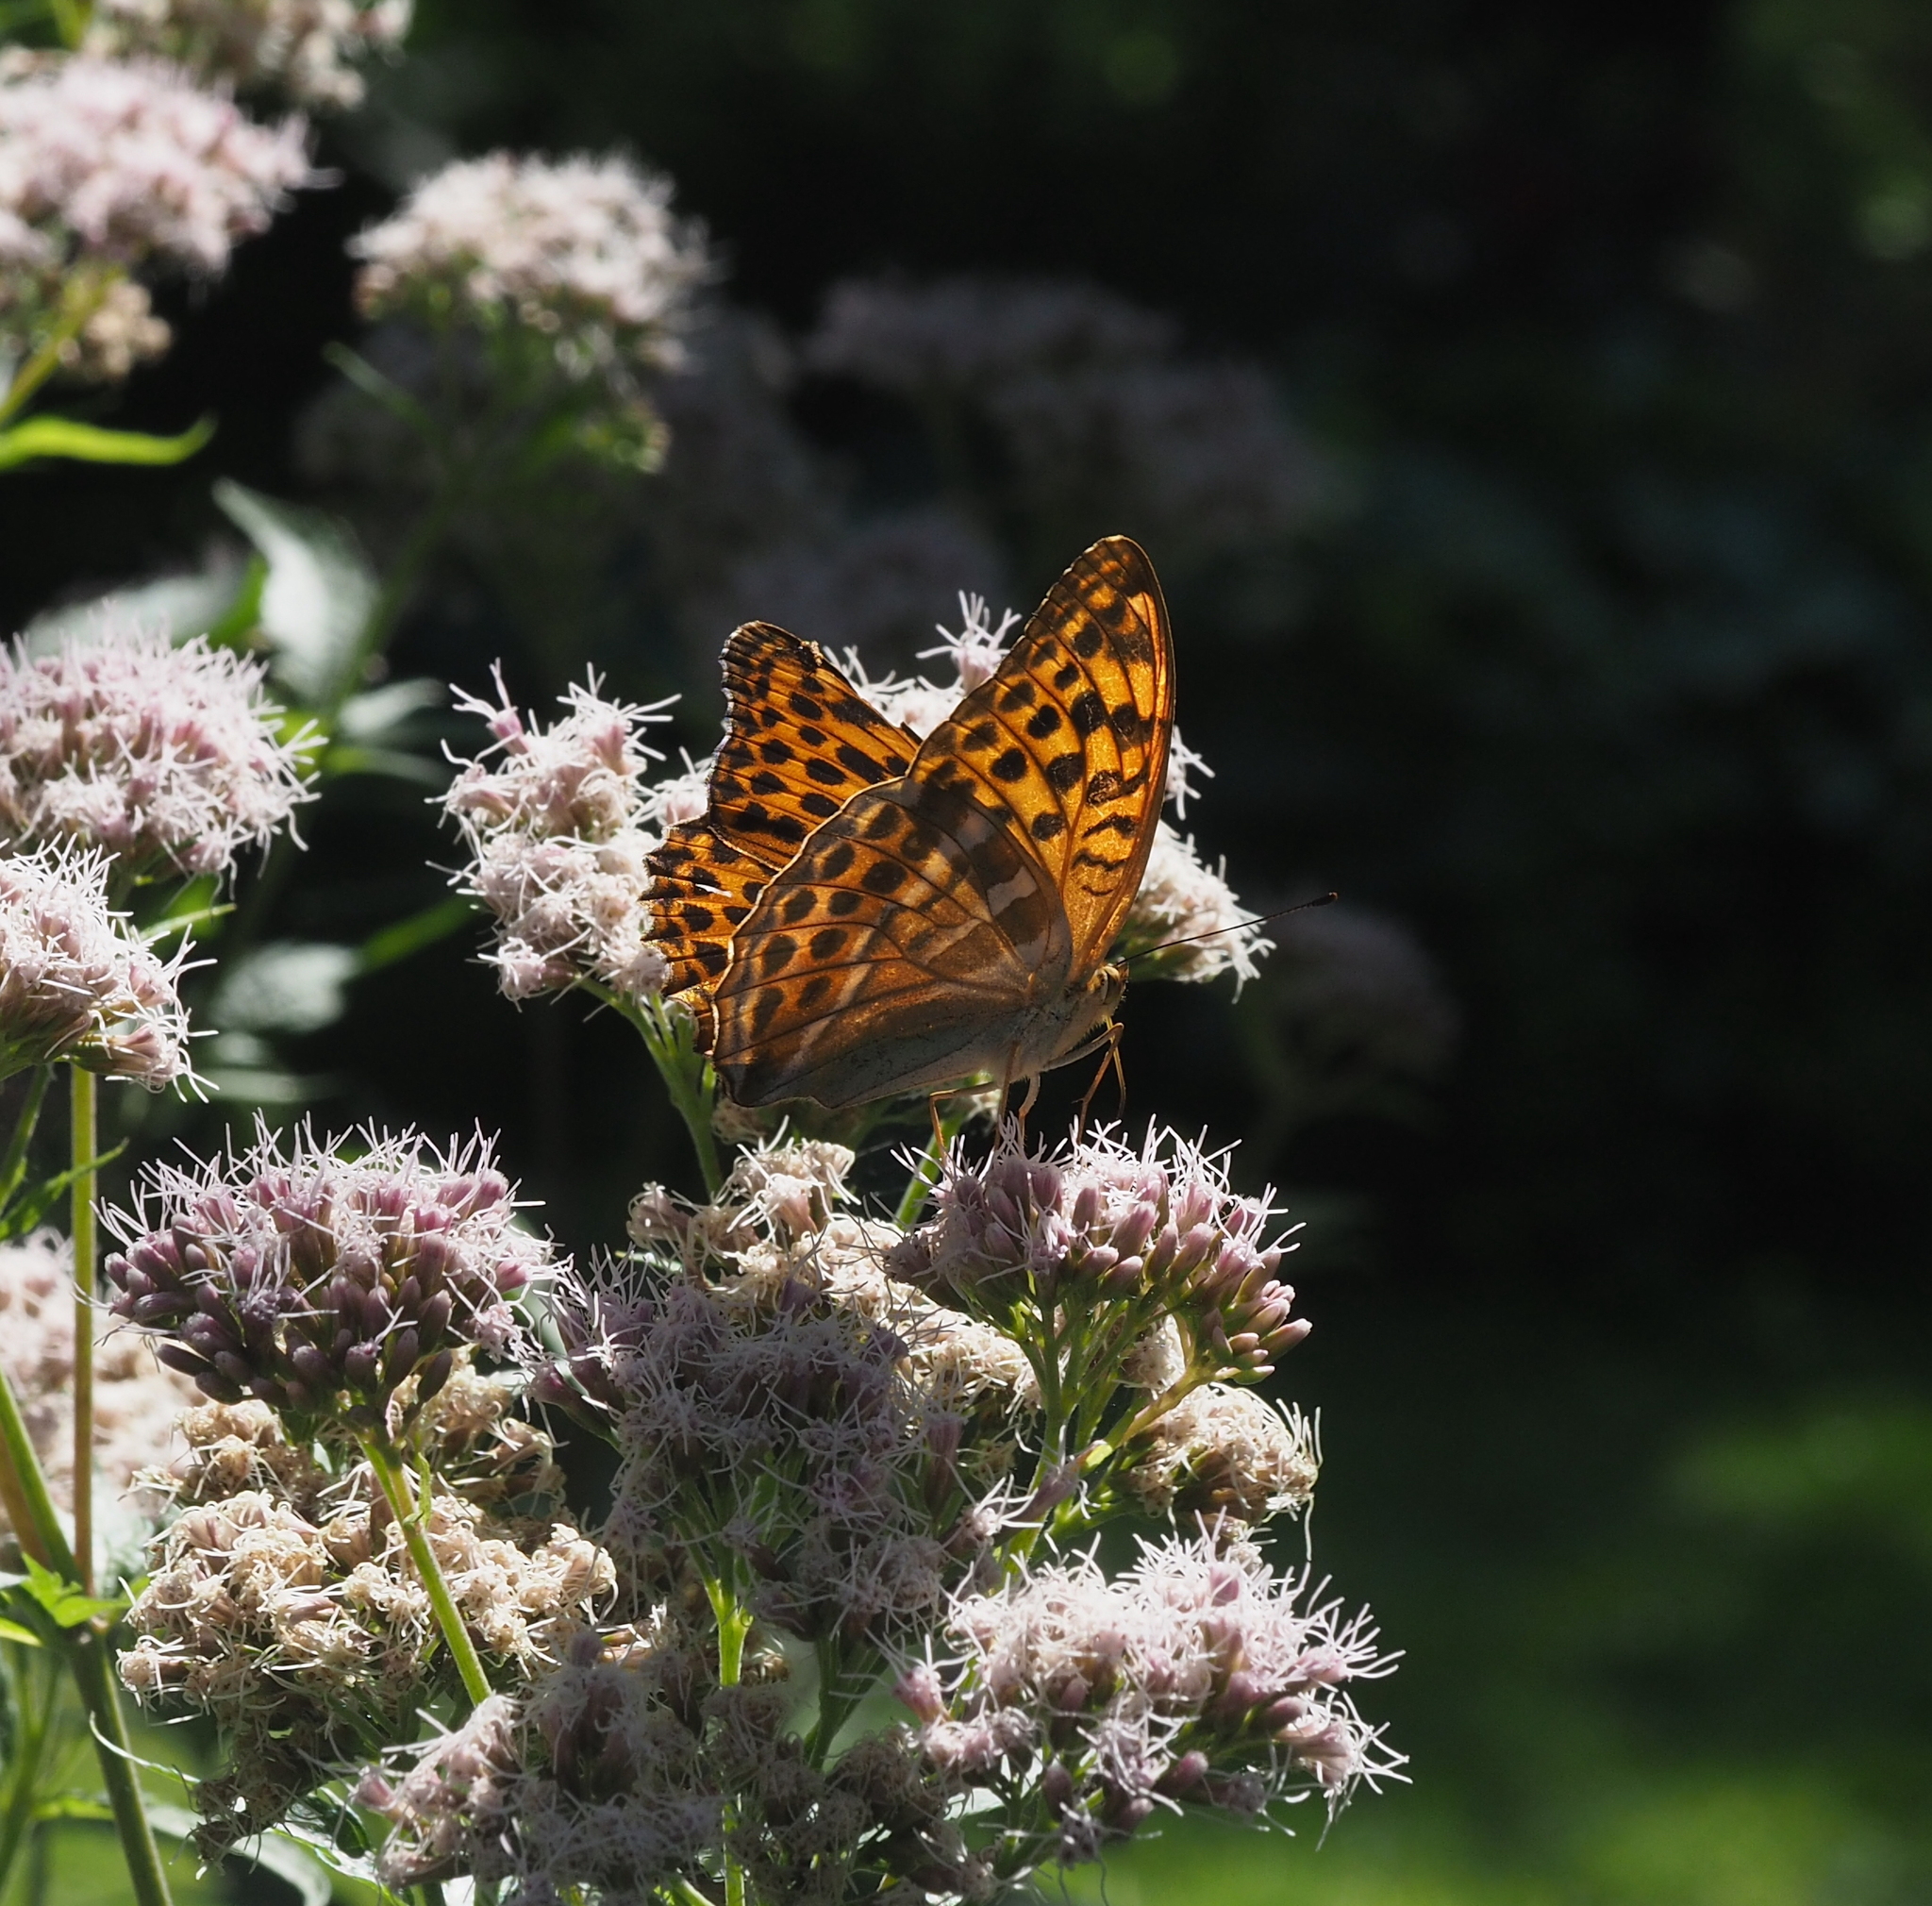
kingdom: Animalia
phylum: Arthropoda
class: Insecta
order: Lepidoptera
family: Nymphalidae
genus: Argynnis
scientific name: Argynnis paphia
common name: Silver-washed fritillary
